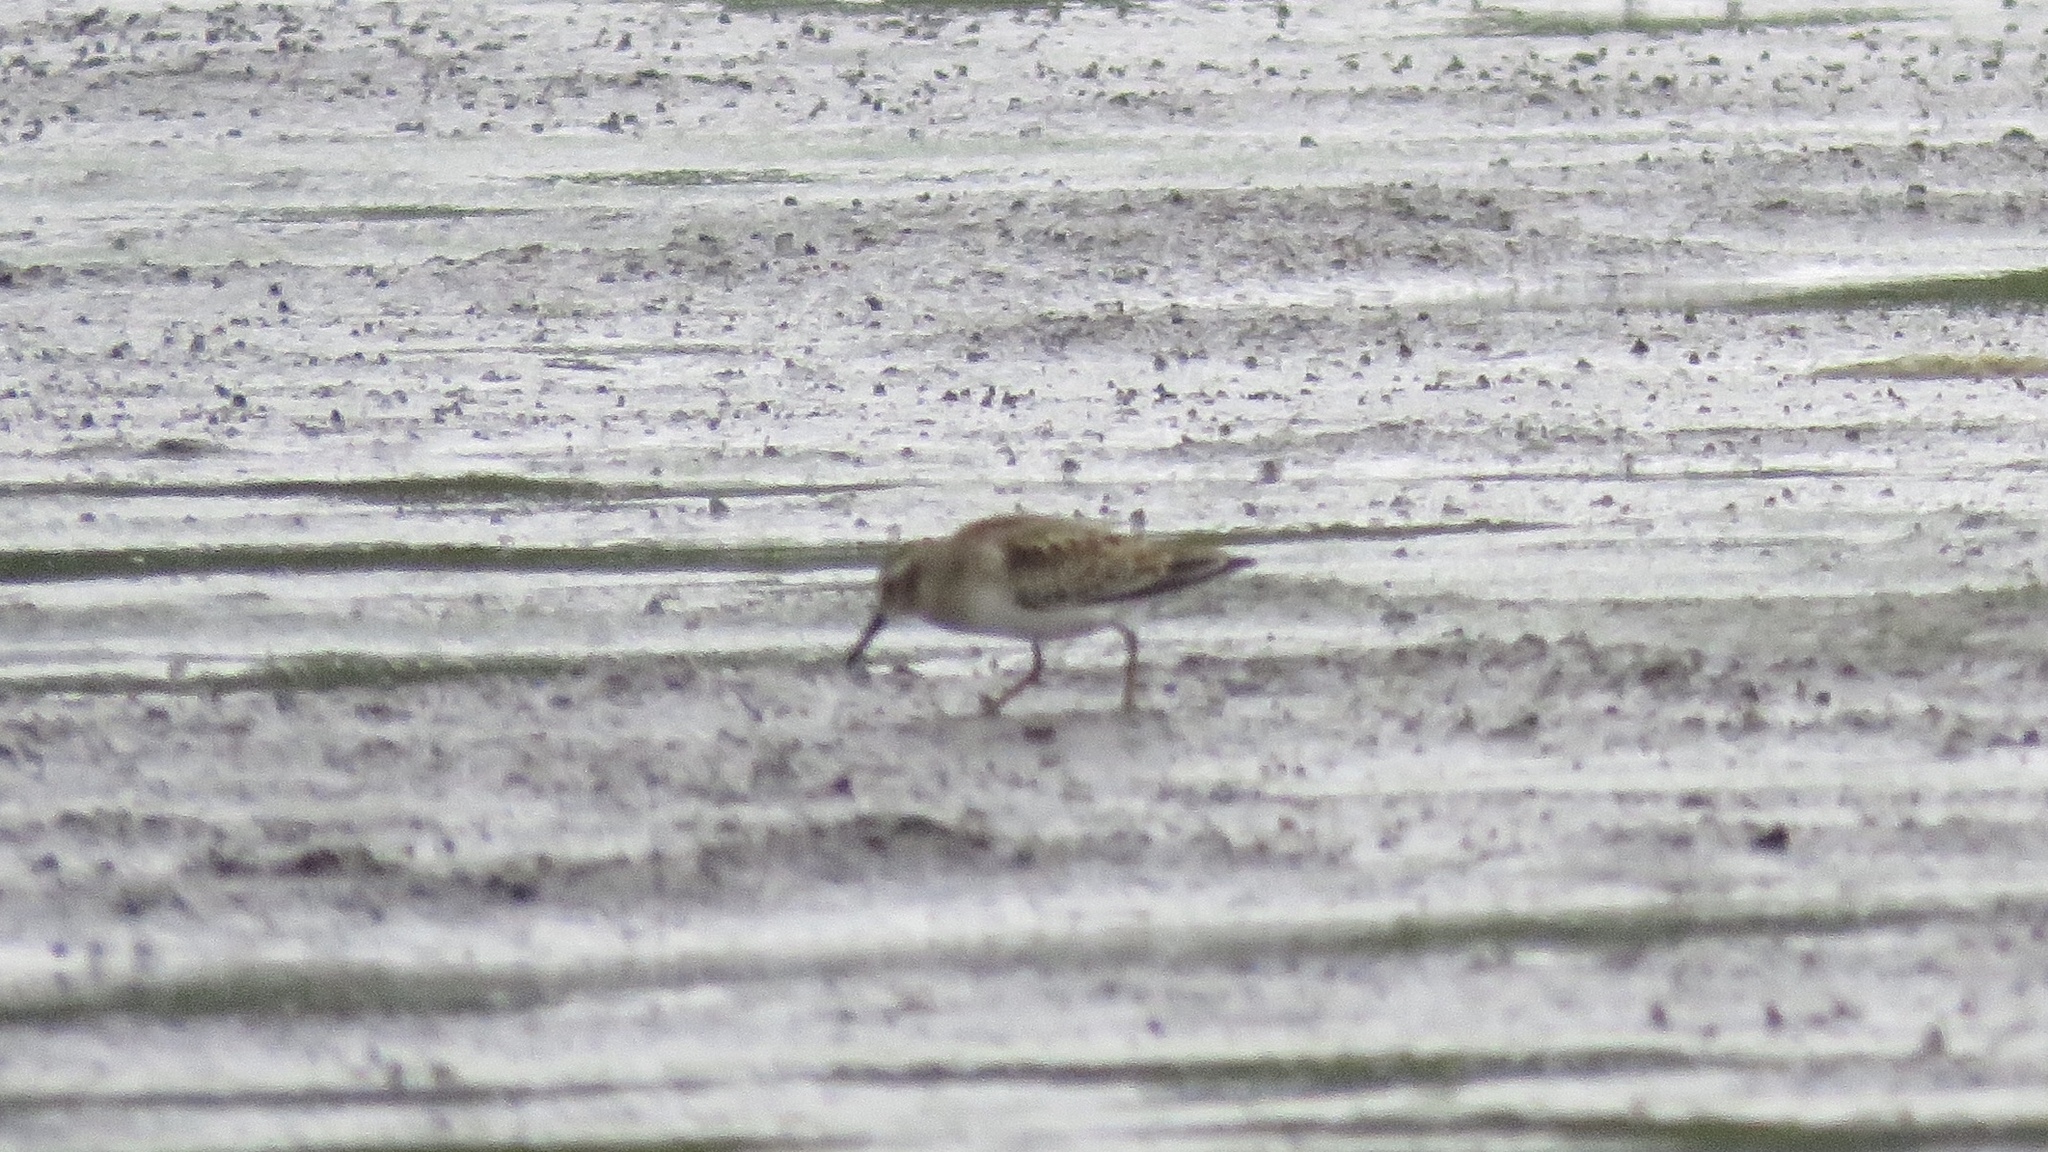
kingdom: Animalia
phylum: Chordata
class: Aves
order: Charadriiformes
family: Scolopacidae
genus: Calidris
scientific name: Calidris minutilla
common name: Least sandpiper
